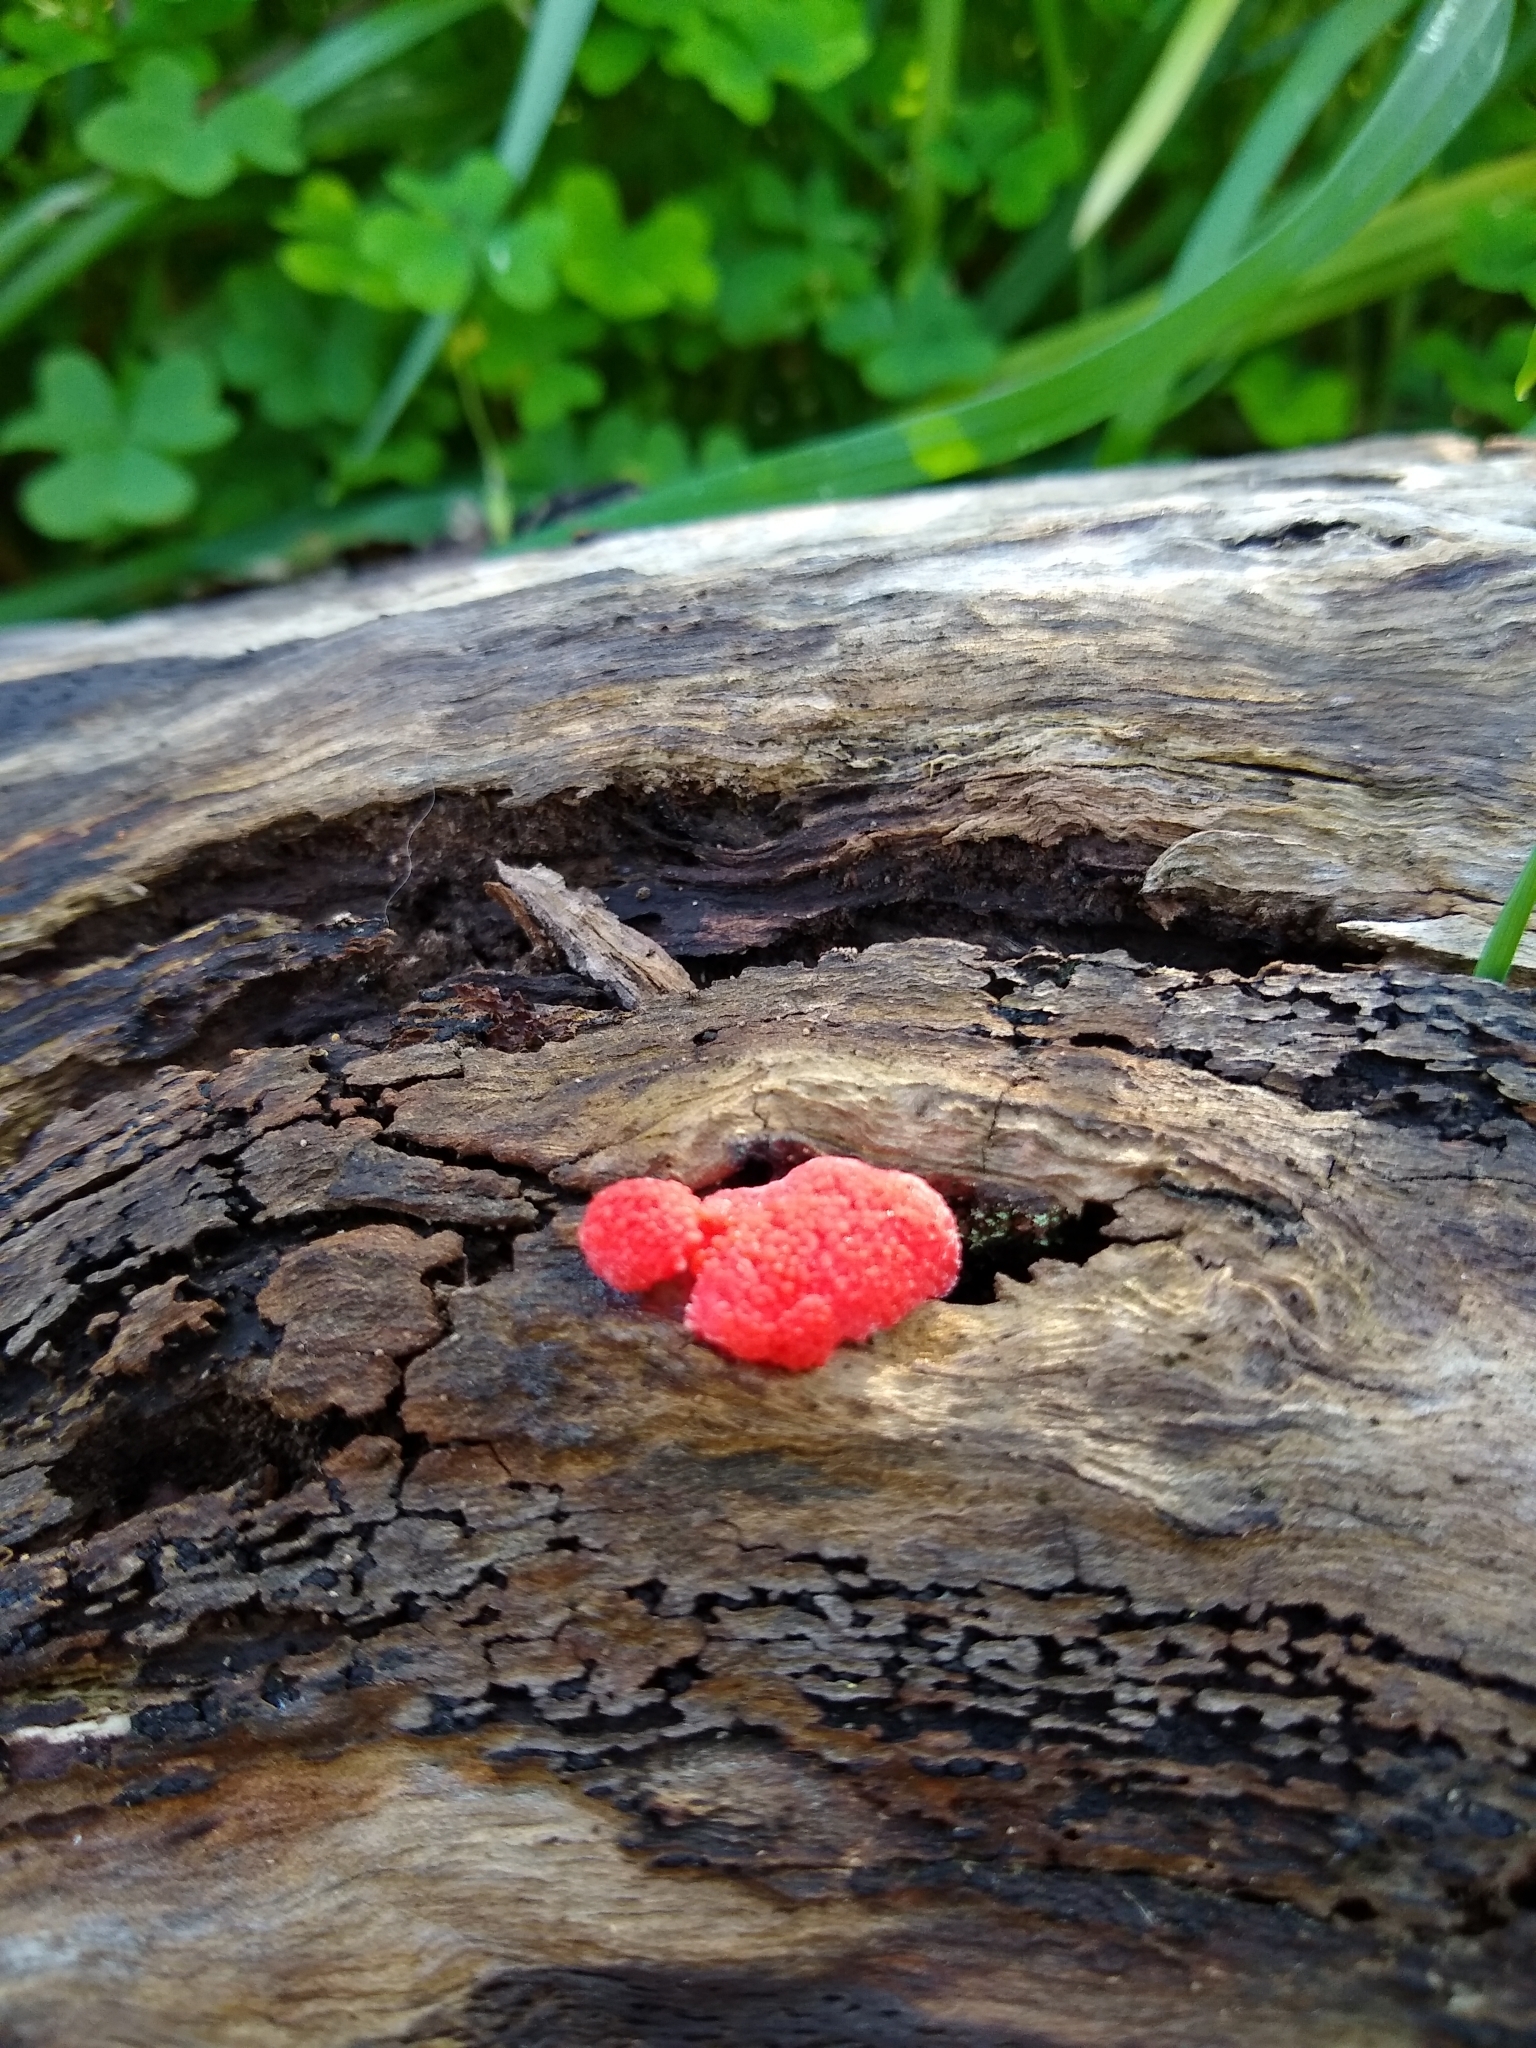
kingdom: Protozoa
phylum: Mycetozoa
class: Myxomycetes
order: Cribrariales
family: Tubiferaceae
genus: Tubifera
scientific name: Tubifera ferruginosa
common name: Red raspberry slime mold
